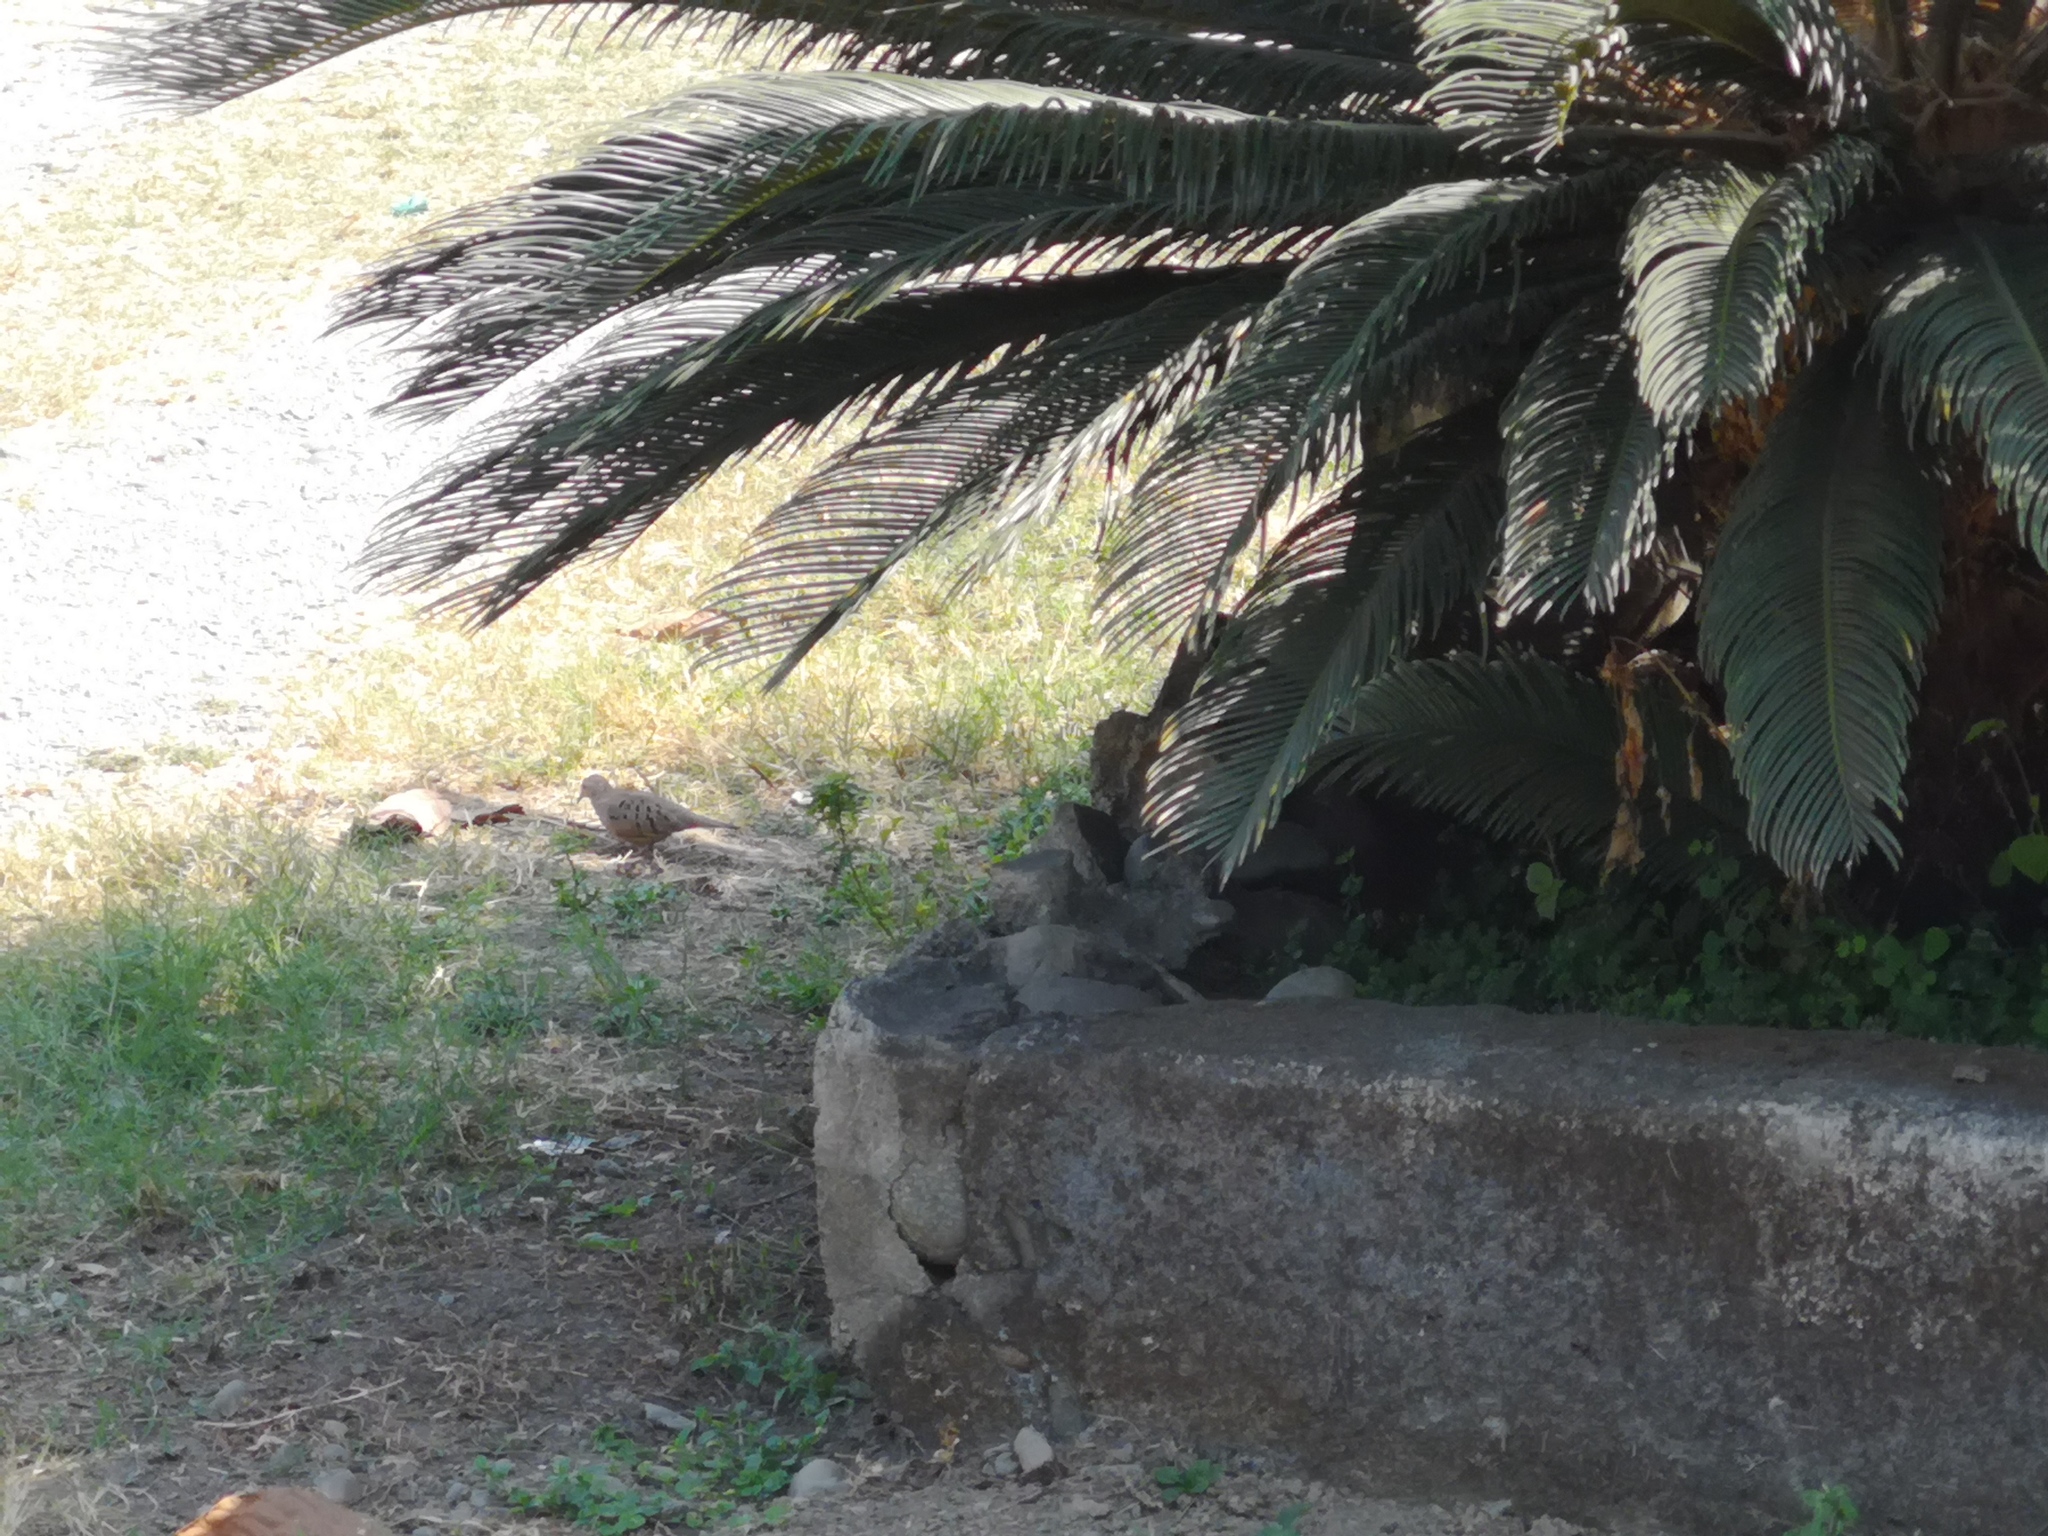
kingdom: Animalia
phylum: Chordata
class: Aves
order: Columbiformes
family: Columbidae
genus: Columbina
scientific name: Columbina buckleyi
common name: Ecuadorian ground dove
